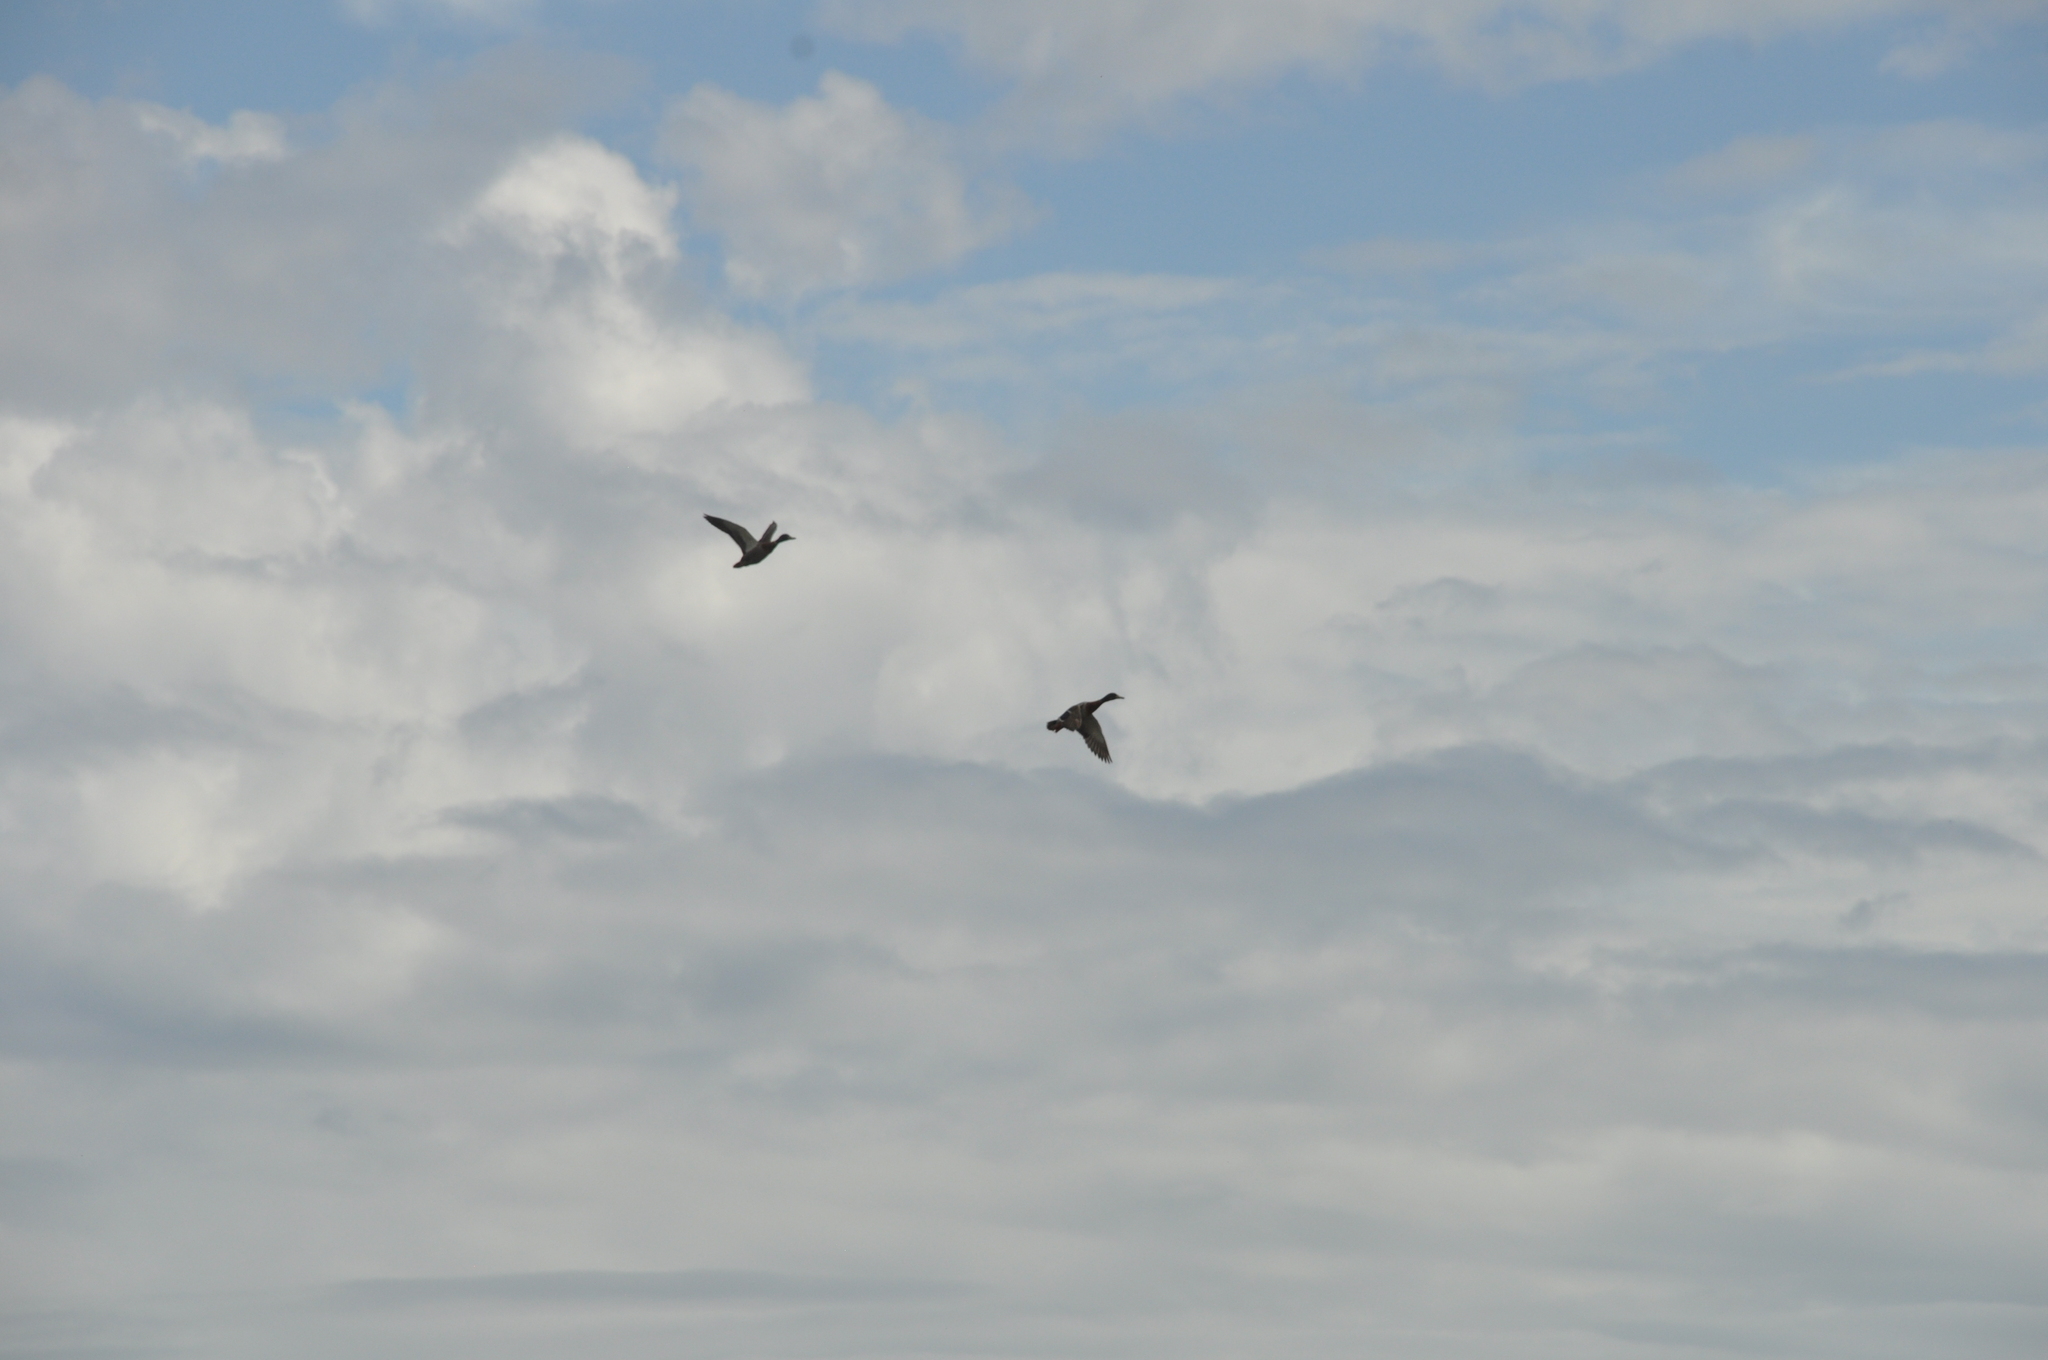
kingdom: Animalia
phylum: Chordata
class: Aves
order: Anseriformes
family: Anatidae
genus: Anas
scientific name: Anas platyrhynchos
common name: Mallard
